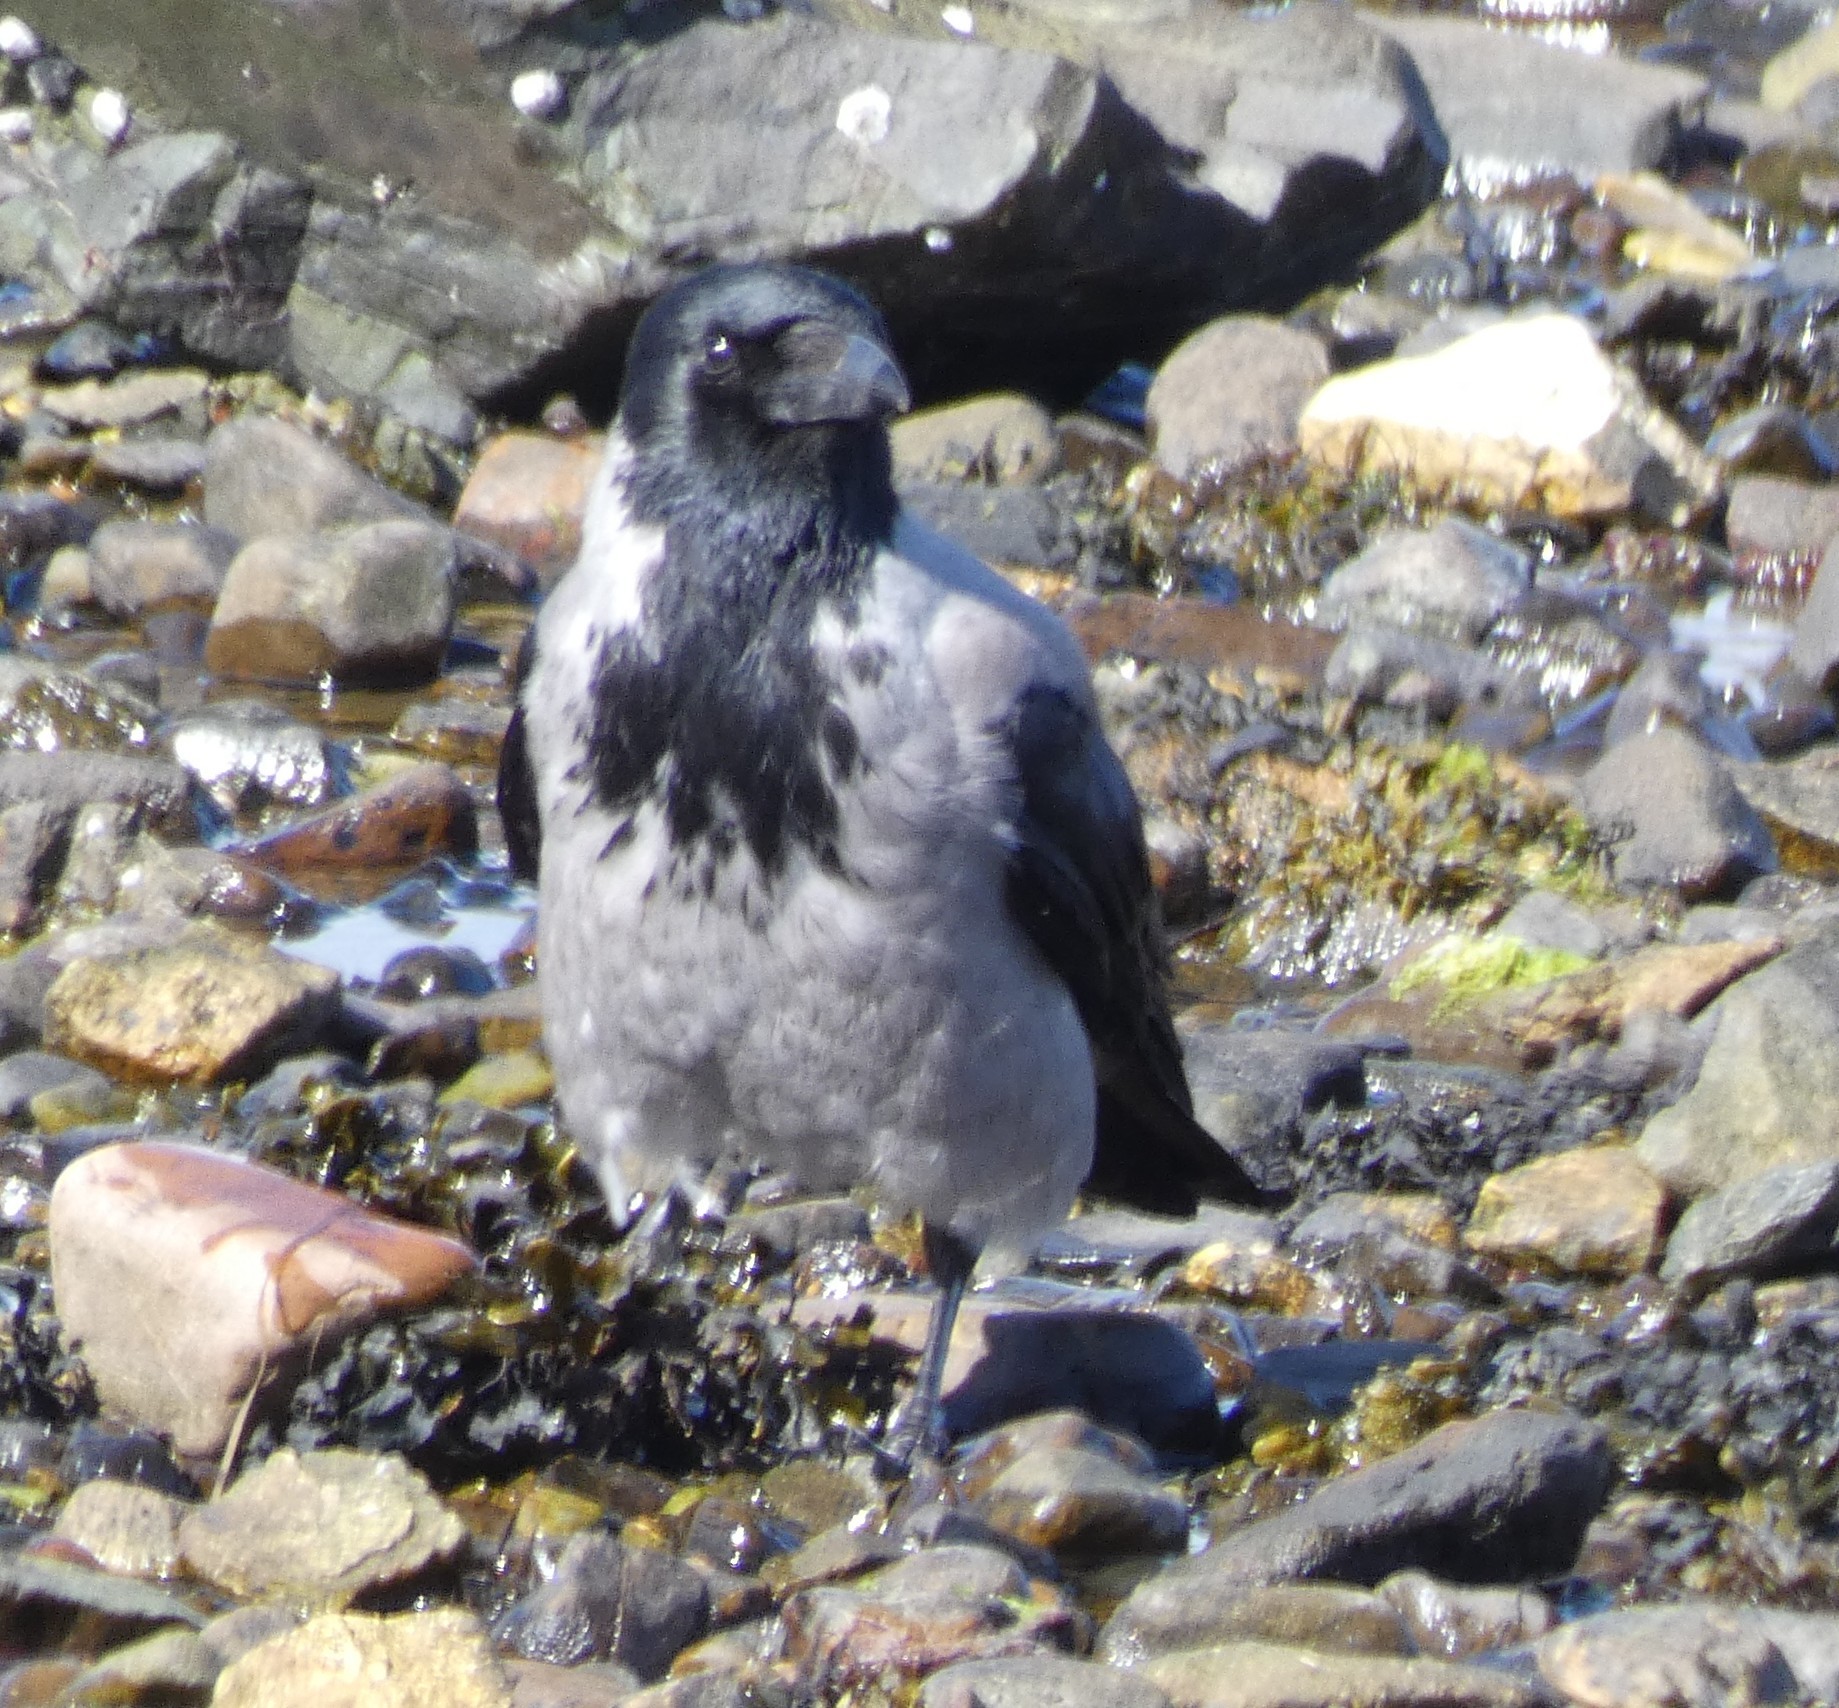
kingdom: Animalia
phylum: Chordata
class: Aves
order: Passeriformes
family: Corvidae
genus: Corvus
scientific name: Corvus cornix
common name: Hooded crow
